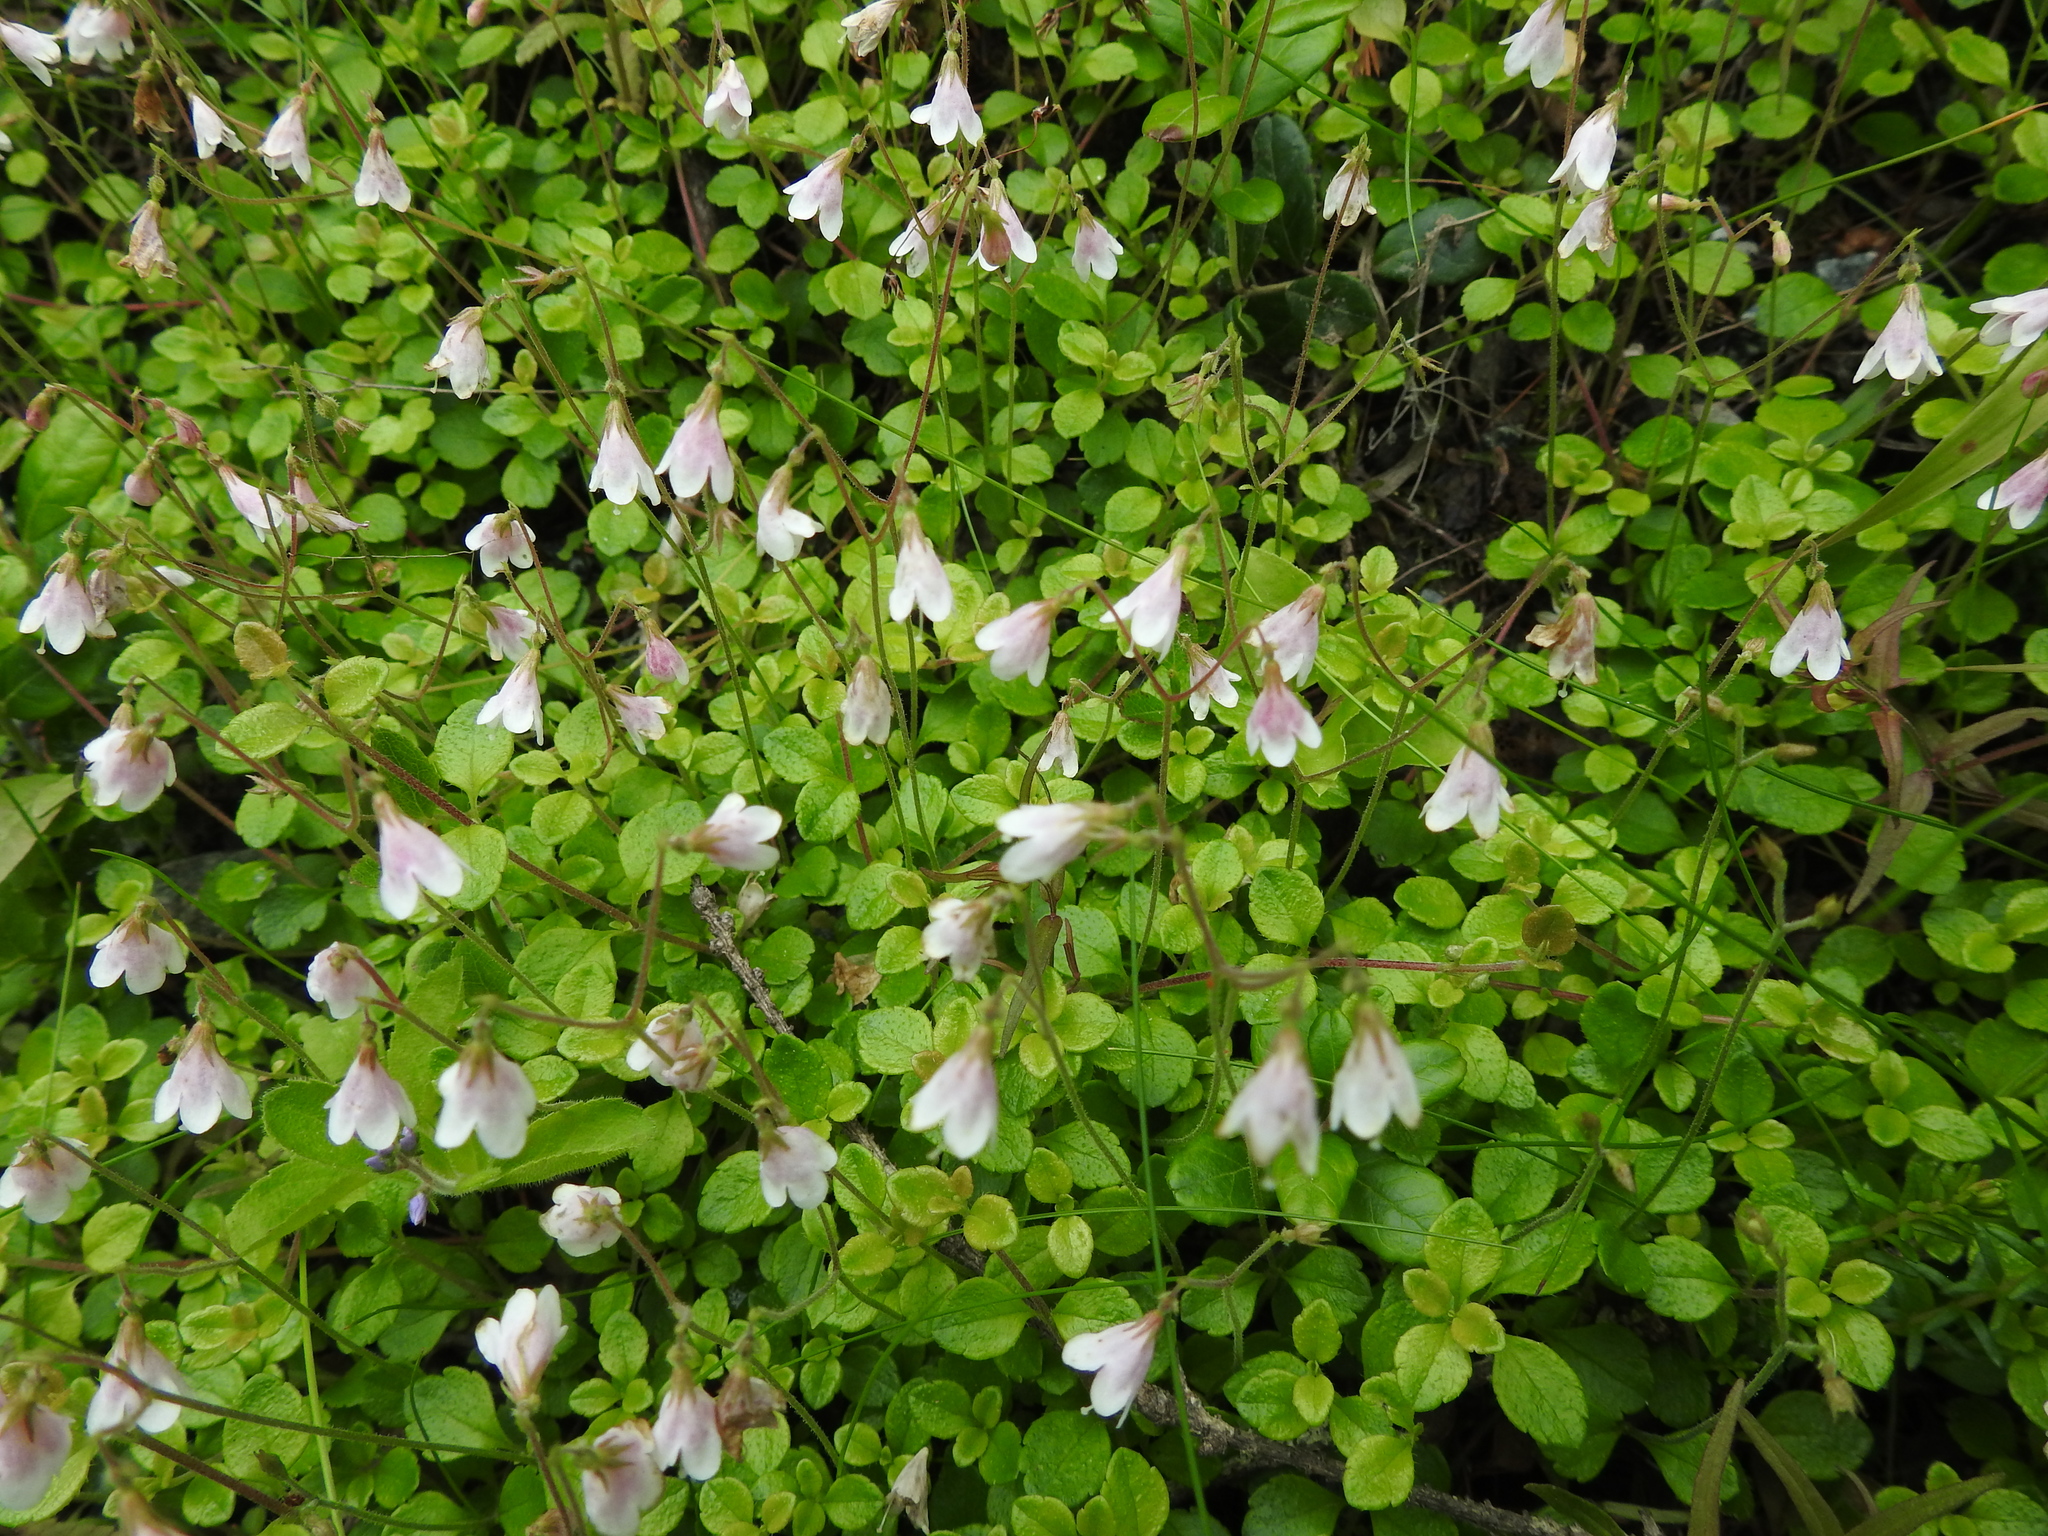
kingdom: Plantae
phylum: Tracheophyta
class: Magnoliopsida
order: Dipsacales
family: Caprifoliaceae
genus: Linnaea
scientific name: Linnaea borealis
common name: Twinflower
